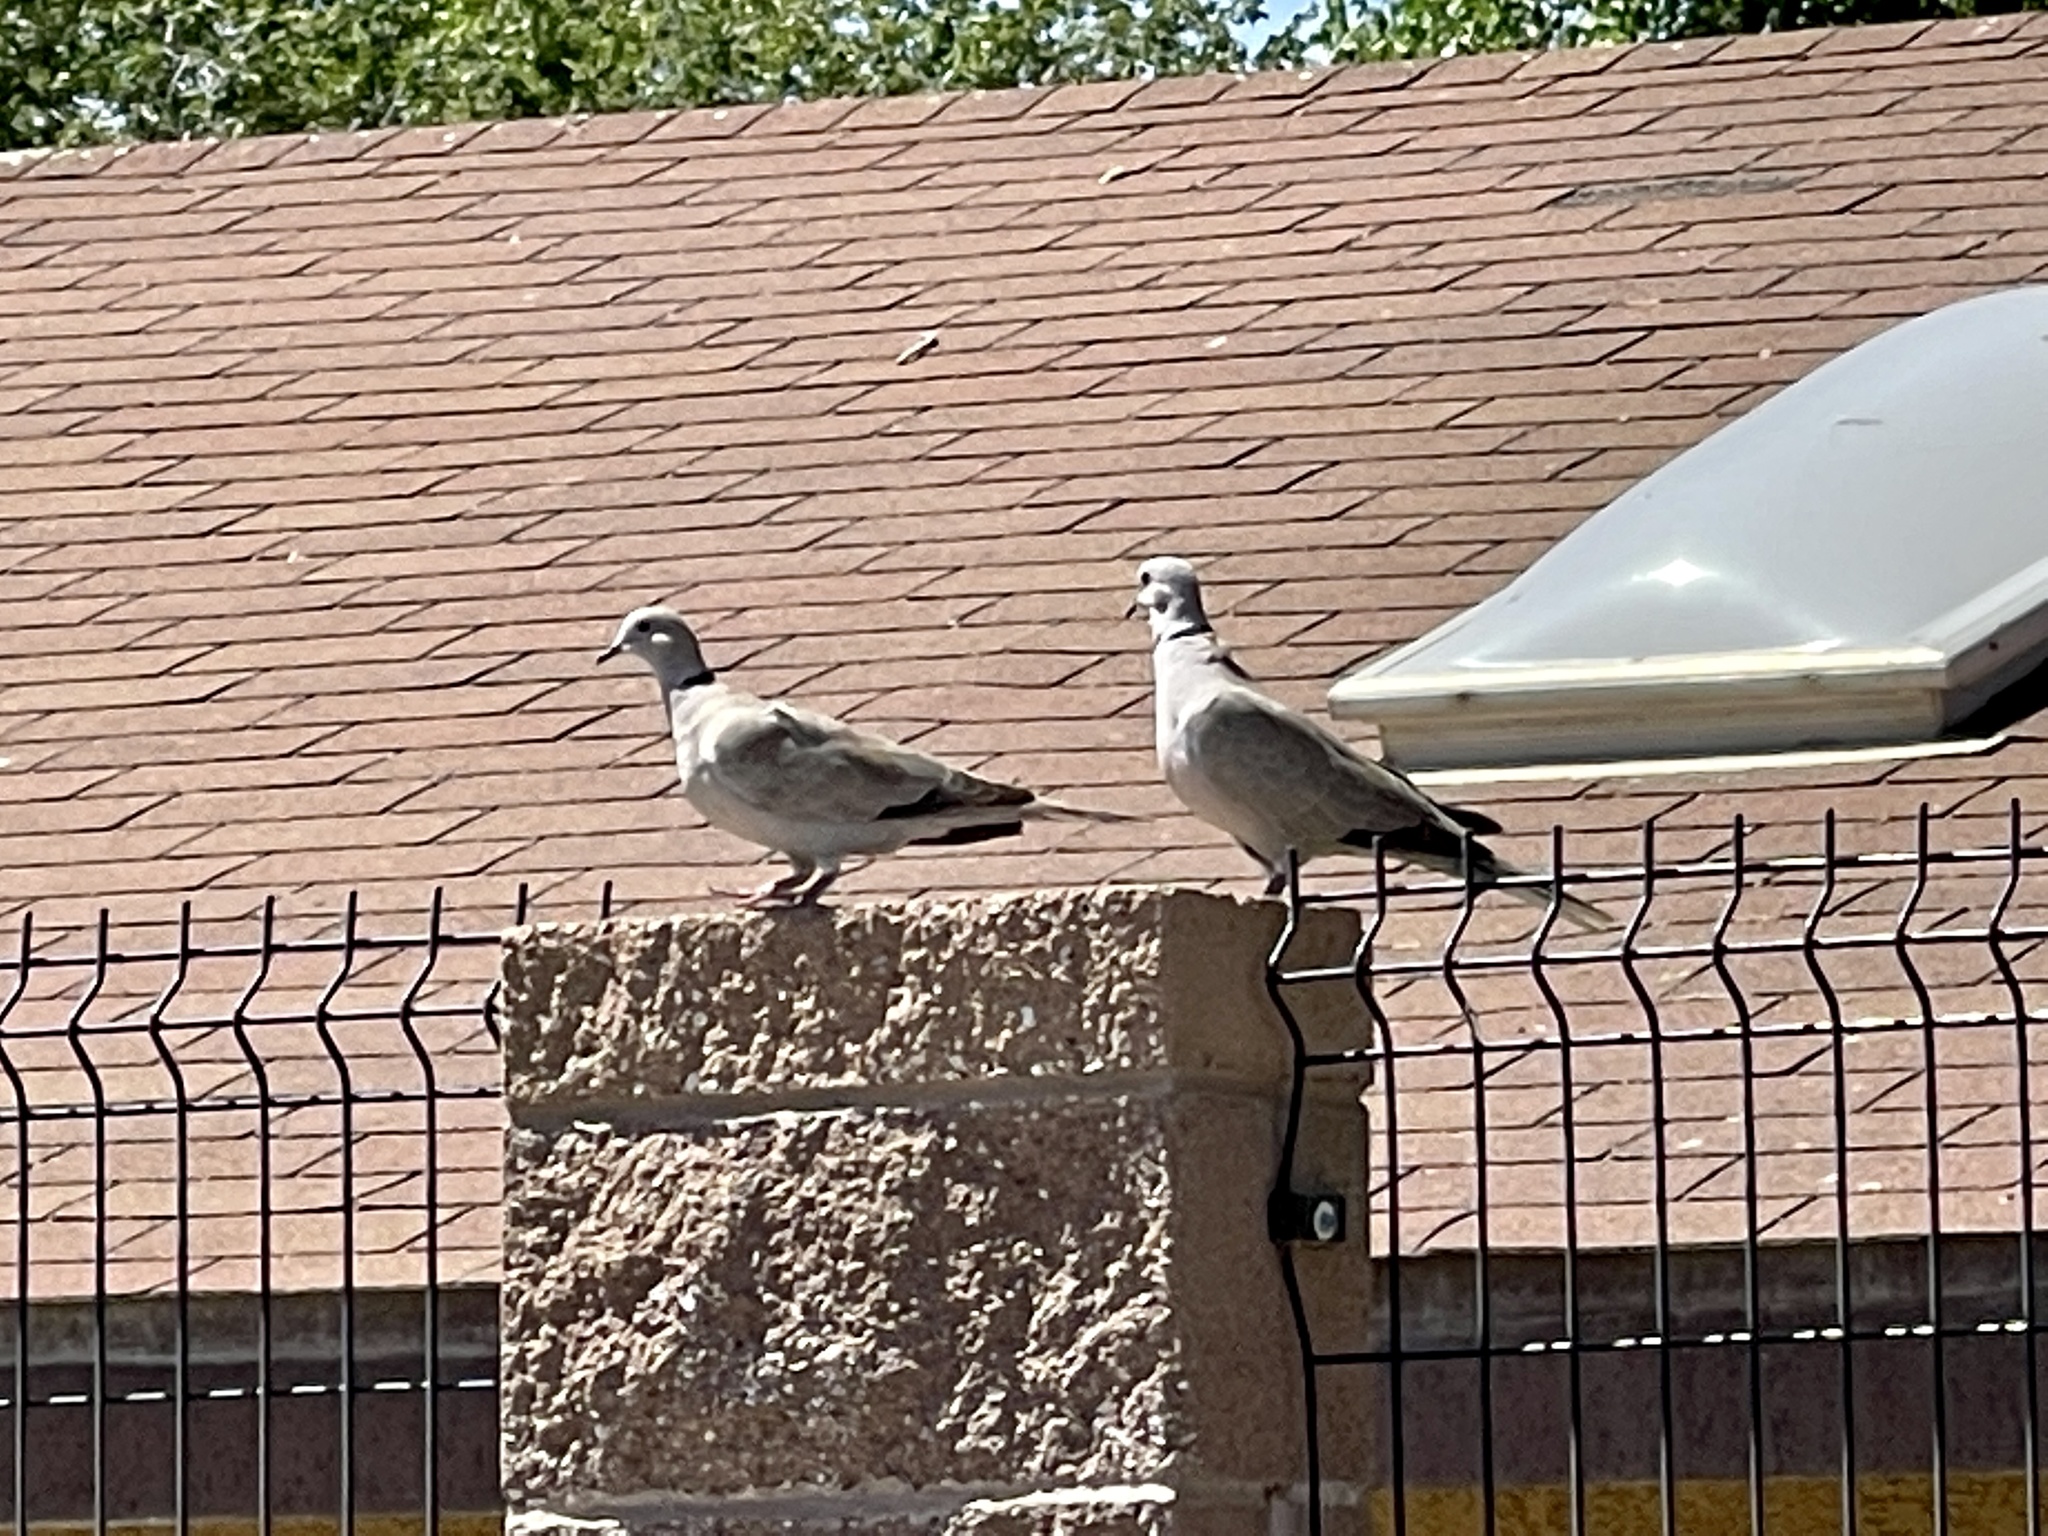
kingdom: Animalia
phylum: Chordata
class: Aves
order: Columbiformes
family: Columbidae
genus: Streptopelia
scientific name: Streptopelia decaocto
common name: Eurasian collared dove
